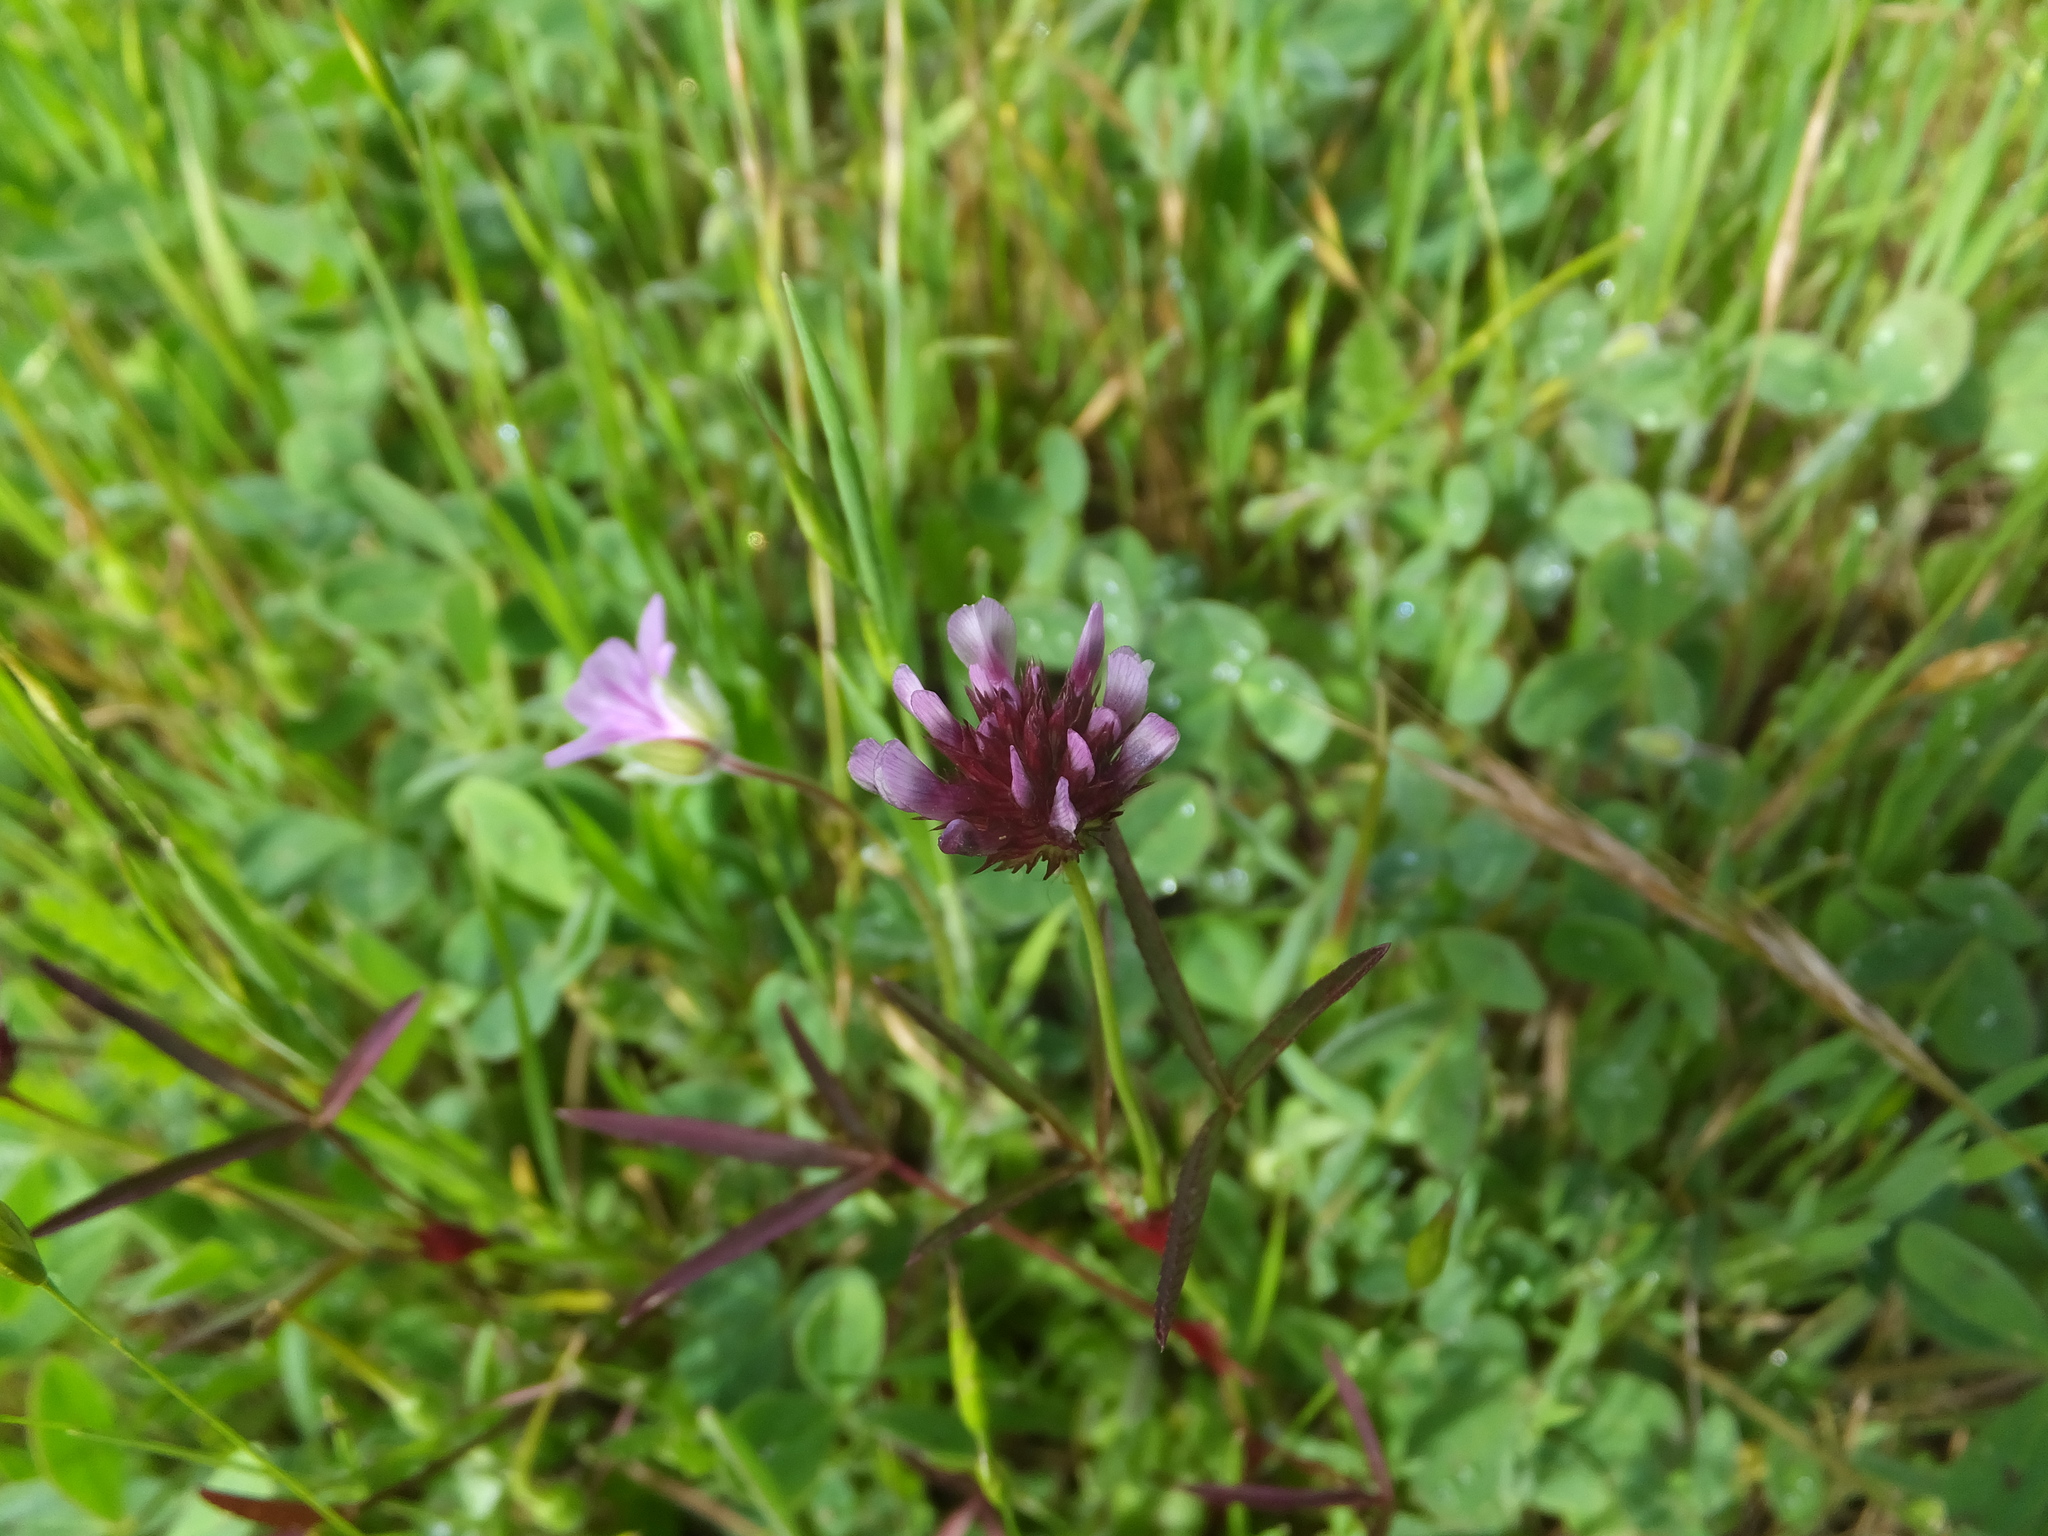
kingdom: Plantae
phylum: Tracheophyta
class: Magnoliopsida
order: Fabales
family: Fabaceae
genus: Trifolium
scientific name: Trifolium willdenovii
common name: Tomcat clover
